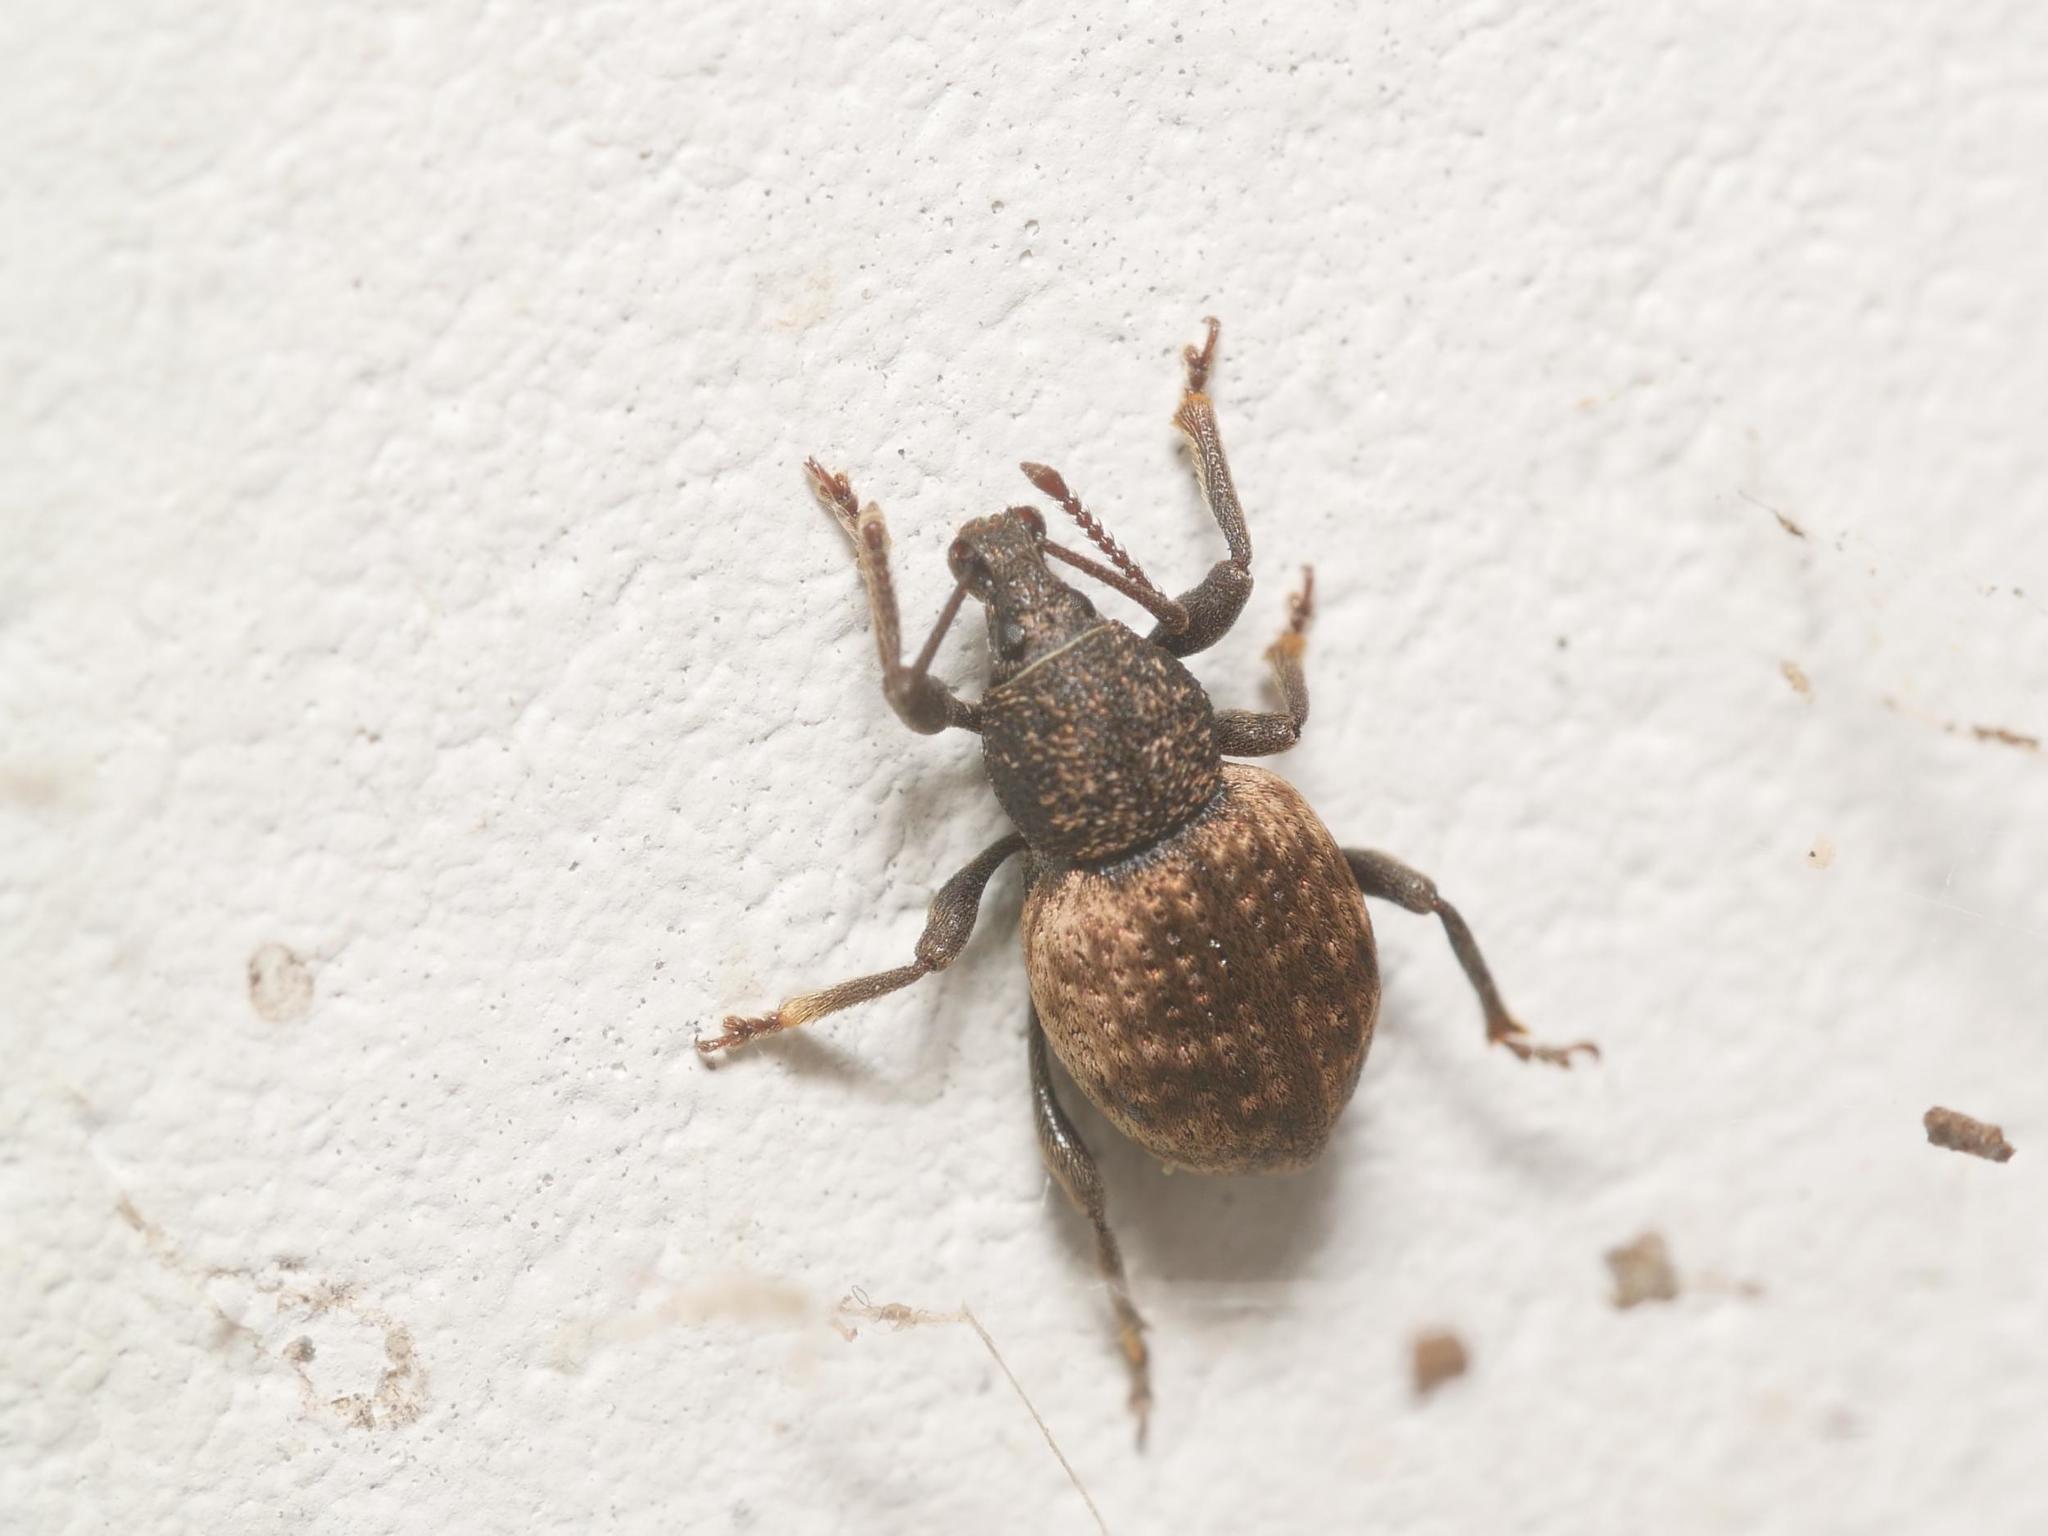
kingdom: Animalia
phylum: Arthropoda
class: Insecta
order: Coleoptera
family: Curculionidae
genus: Otiorhynchus
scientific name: Otiorhynchus raucus
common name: Weevil
